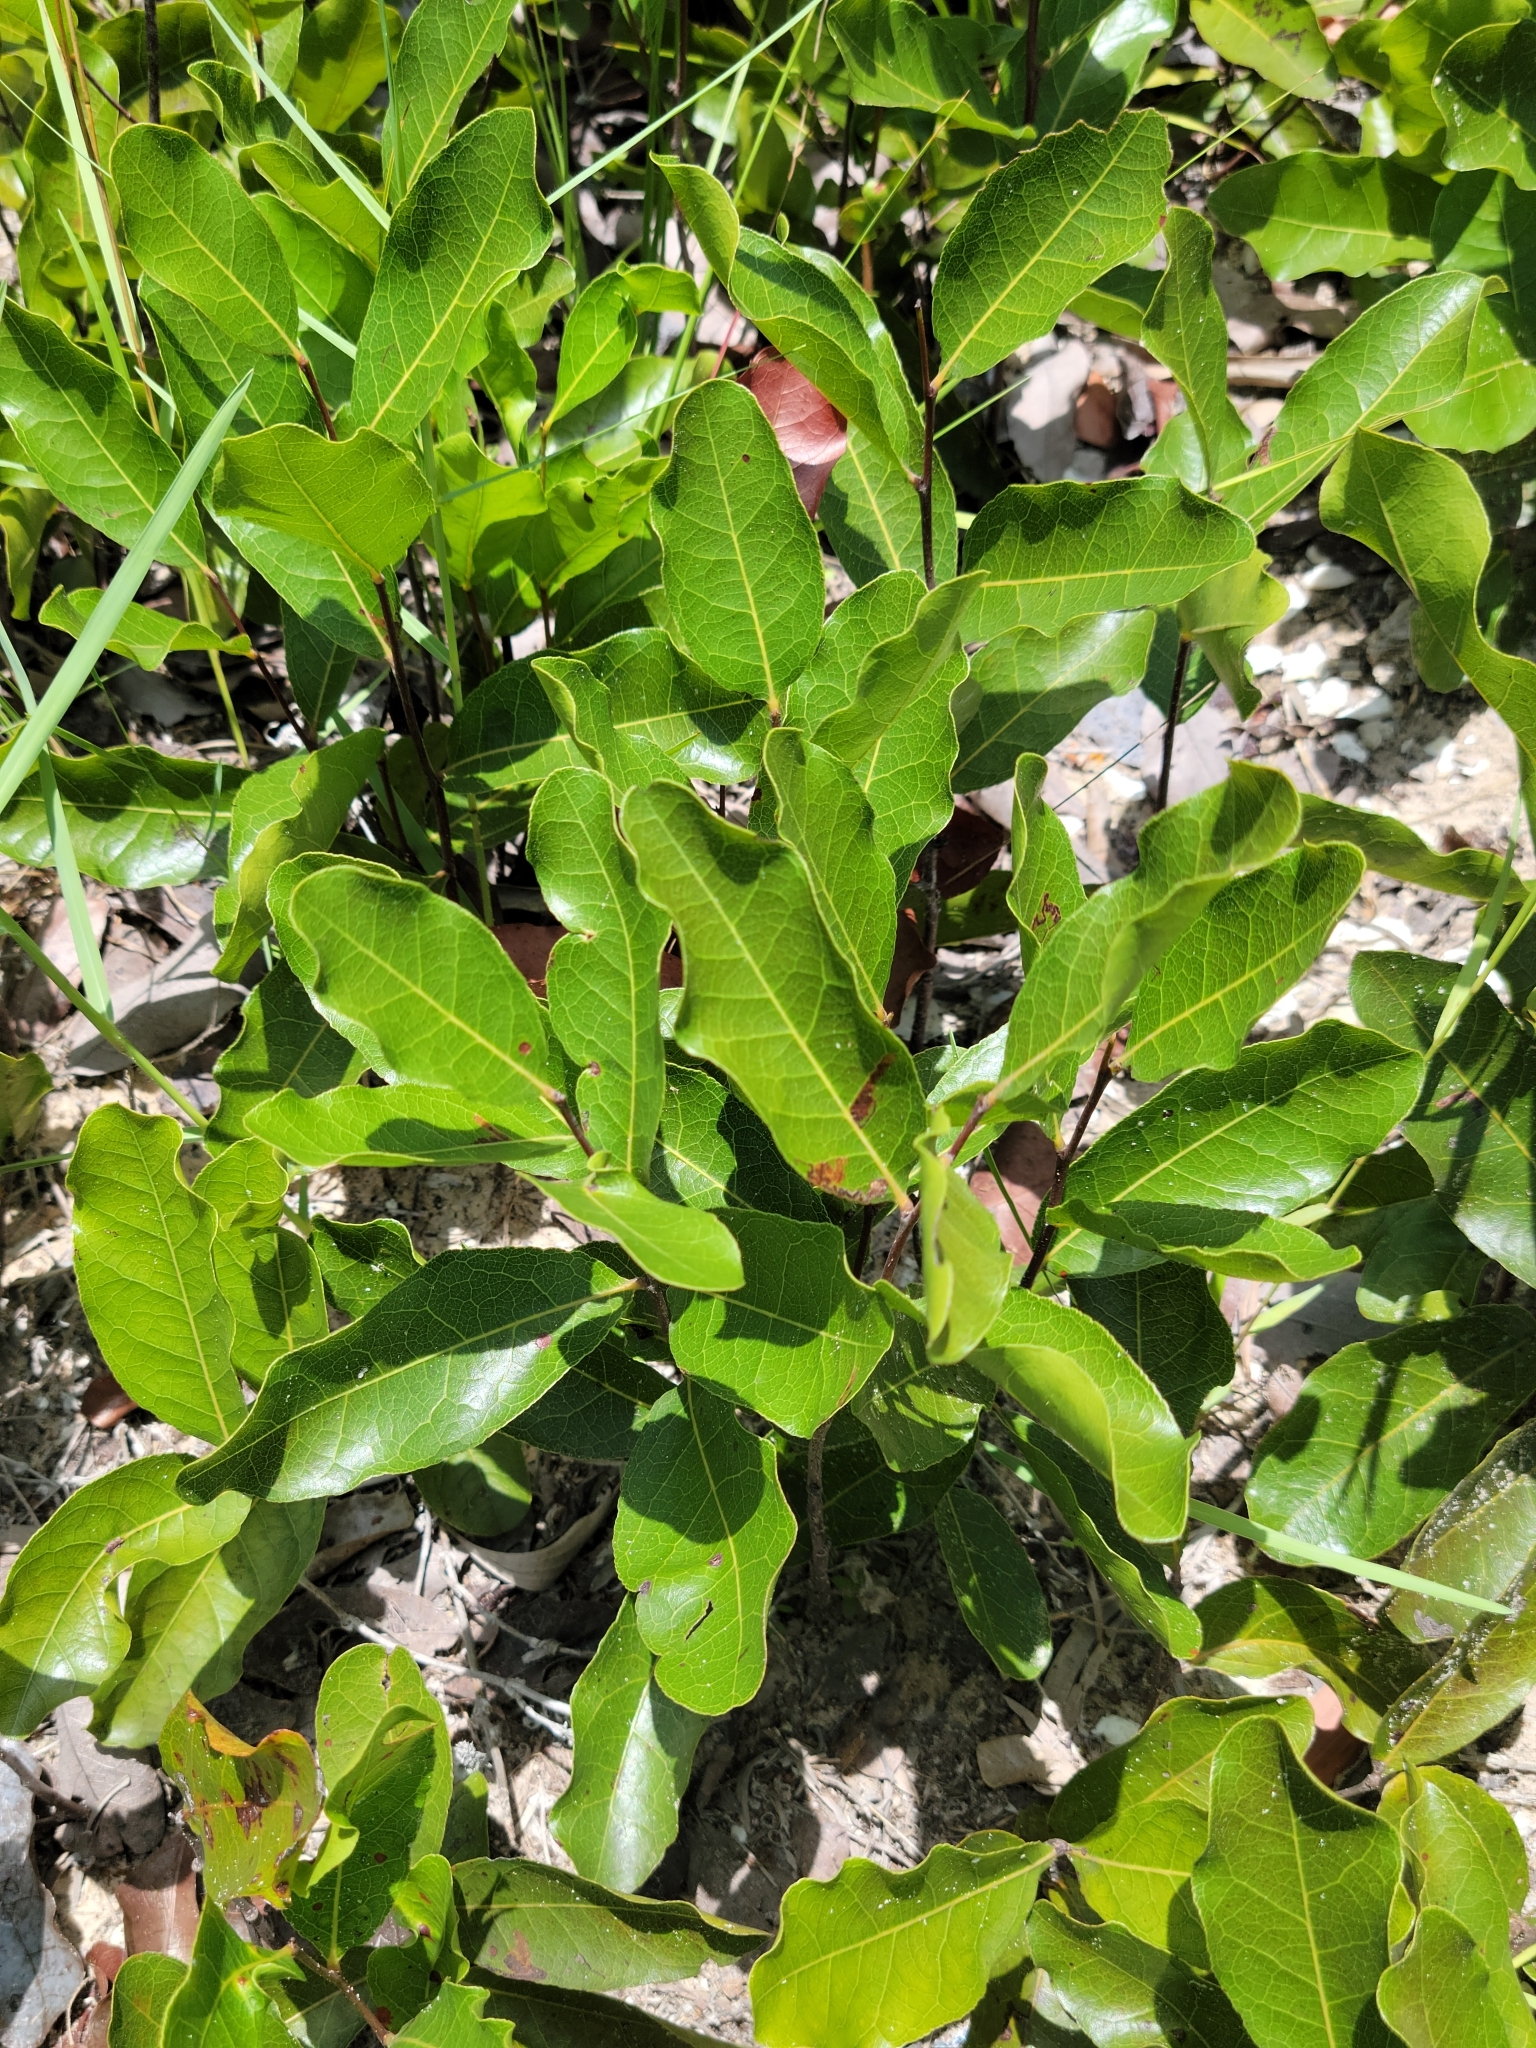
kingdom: Plantae
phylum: Tracheophyta
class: Magnoliopsida
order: Malpighiales
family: Chrysobalanaceae
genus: Geobalanus
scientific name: Geobalanus oblongifolius
